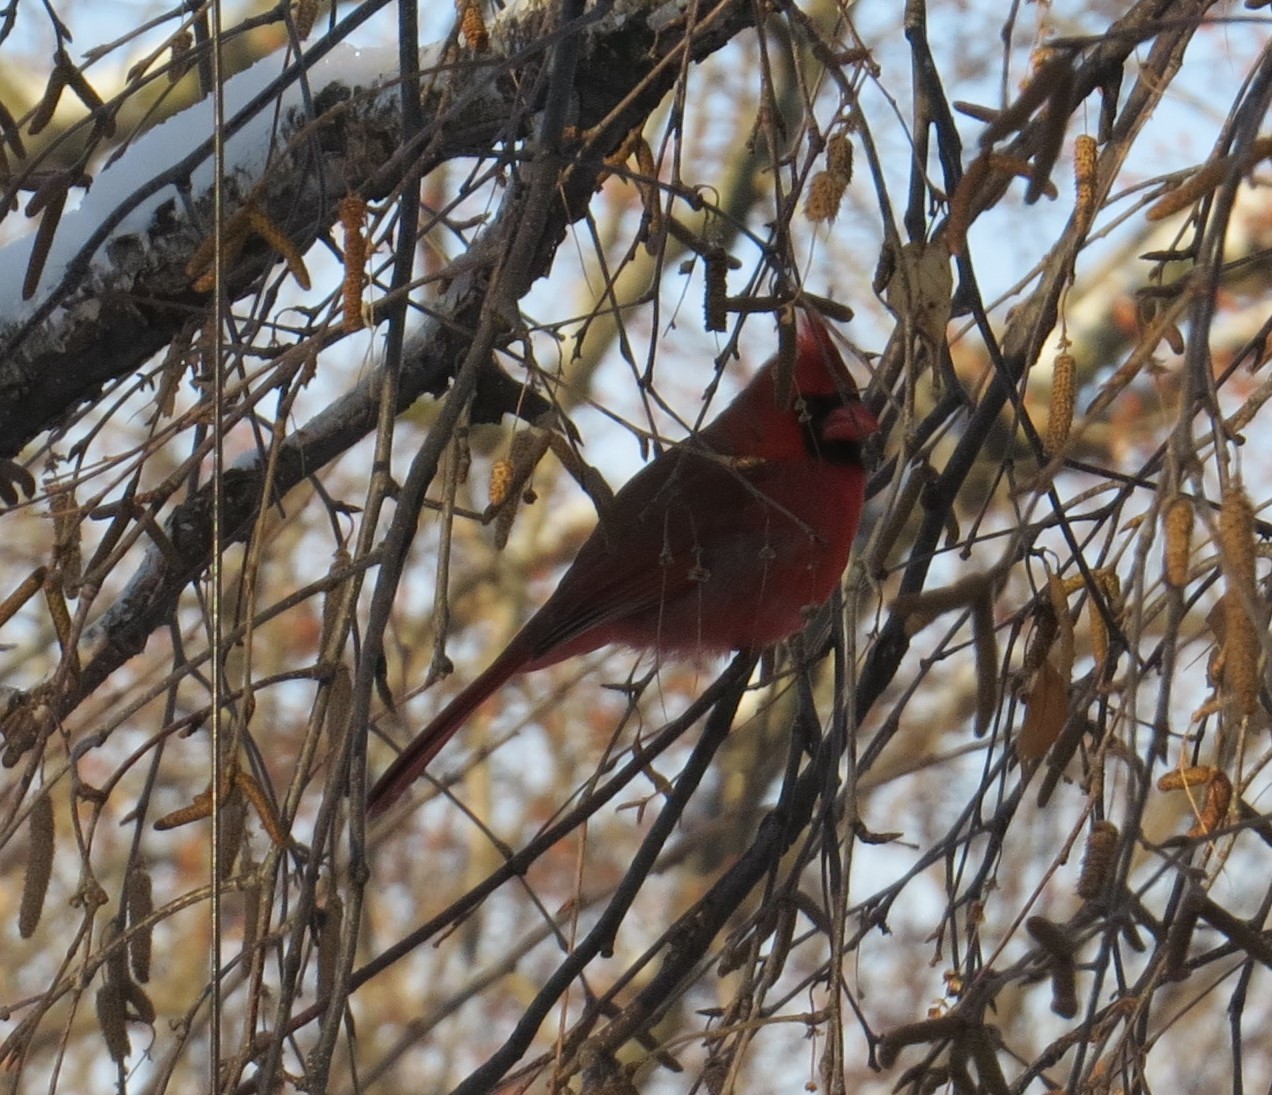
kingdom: Animalia
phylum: Chordata
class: Aves
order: Passeriformes
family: Cardinalidae
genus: Cardinalis
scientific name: Cardinalis cardinalis
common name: Northern cardinal
